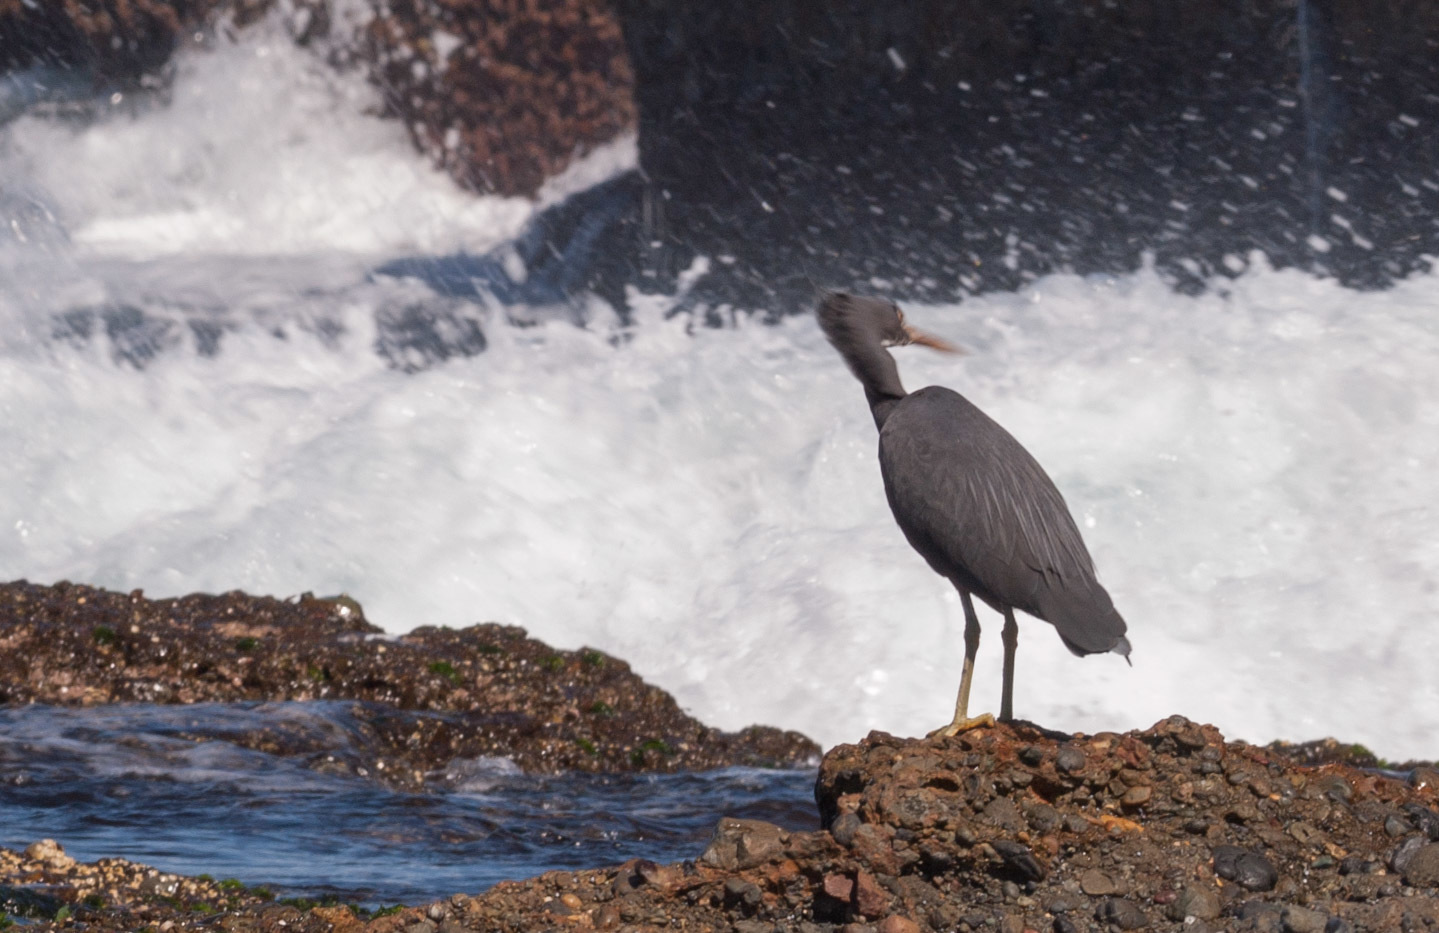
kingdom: Animalia
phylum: Chordata
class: Aves
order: Pelecaniformes
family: Ardeidae
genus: Egretta
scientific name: Egretta sacra
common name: Pacific reef heron
